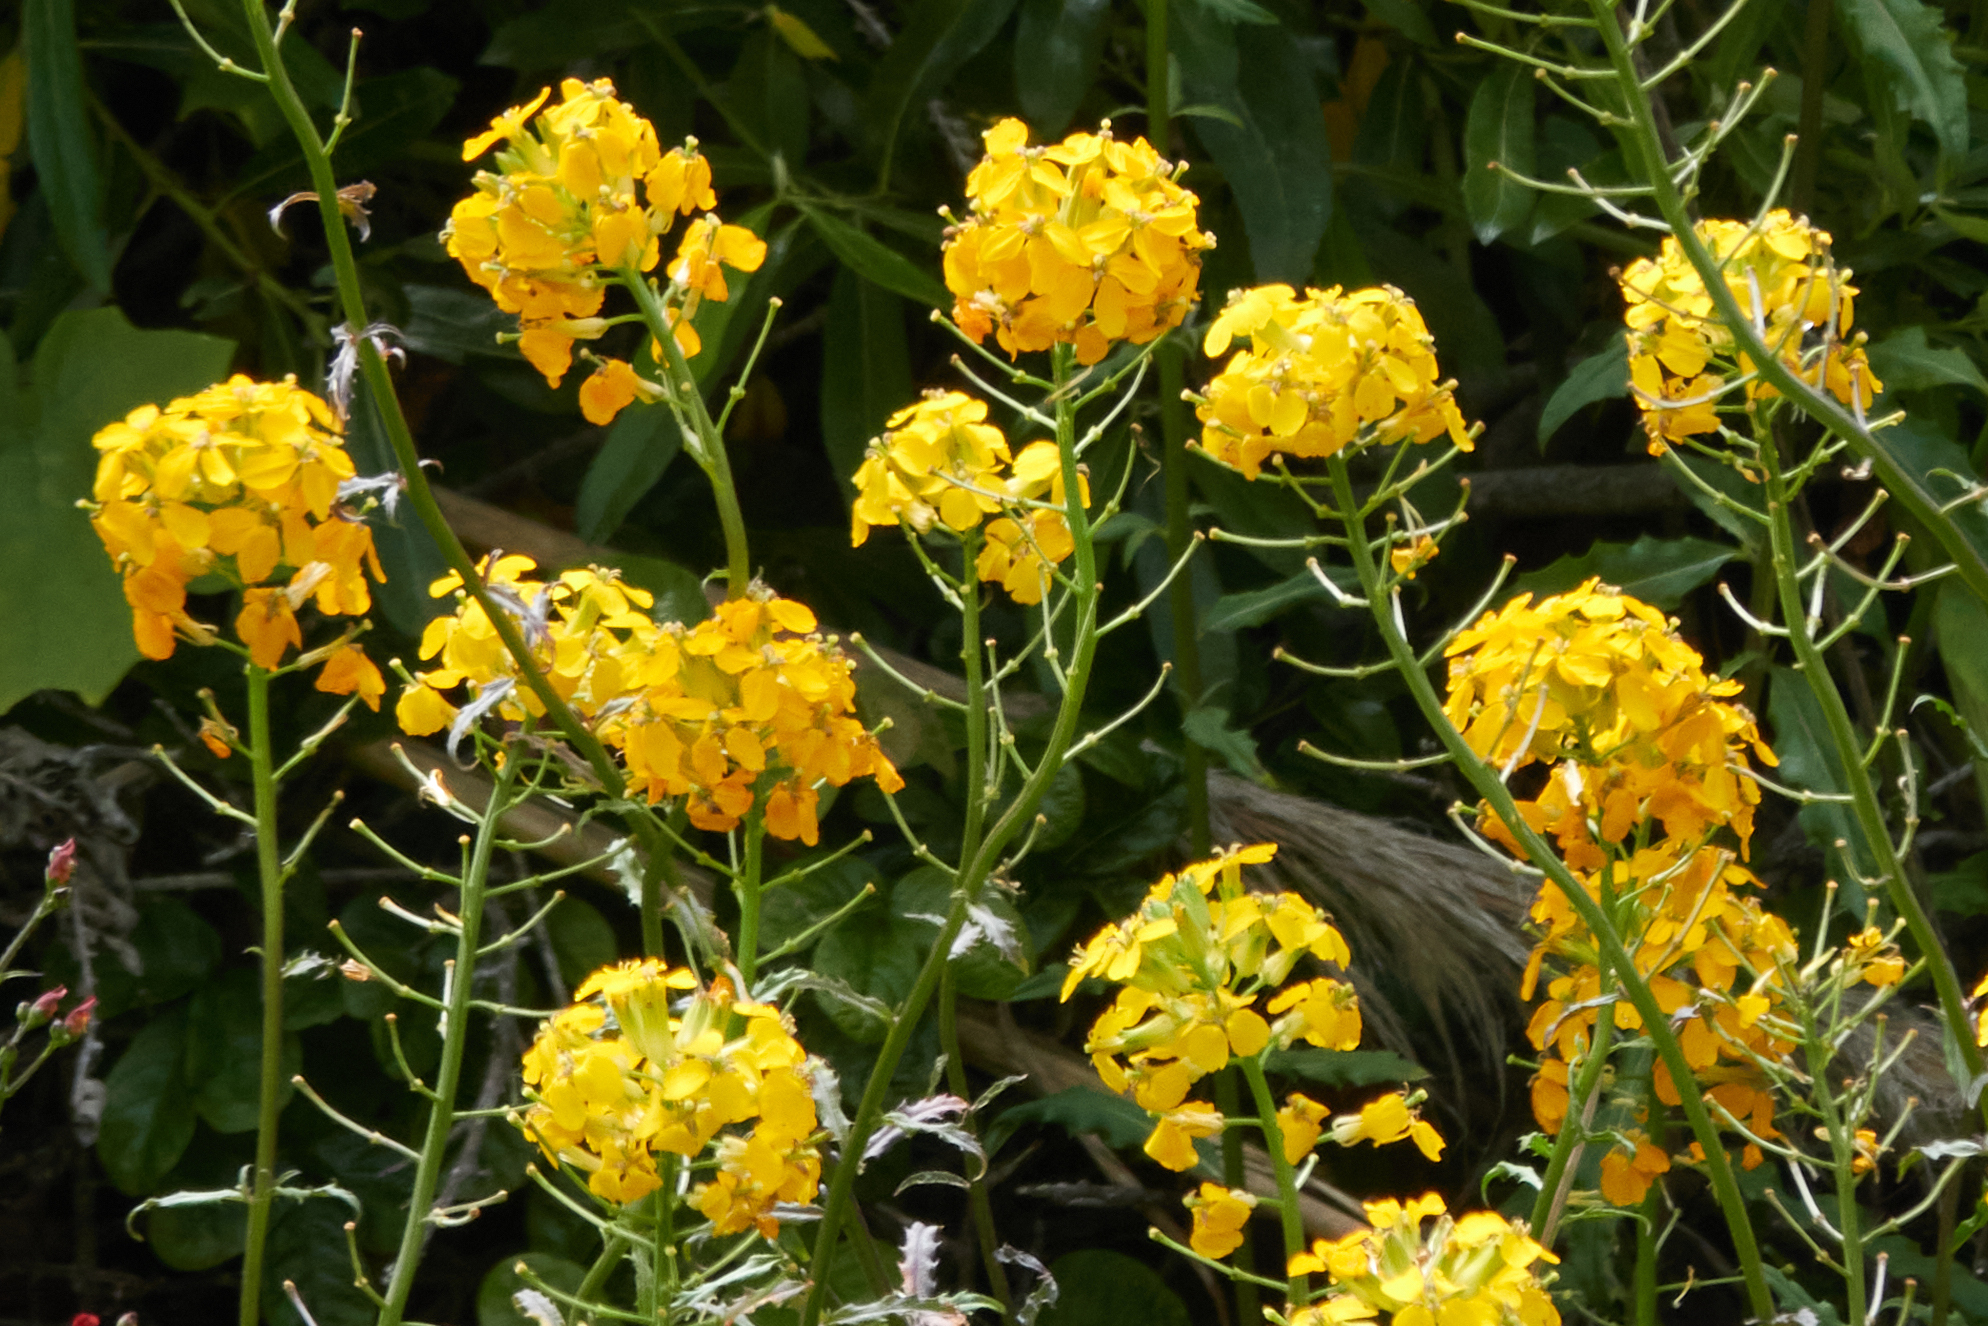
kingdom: Plantae
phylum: Tracheophyta
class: Magnoliopsida
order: Brassicales
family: Brassicaceae
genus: Erysimum
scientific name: Erysimum capitatum
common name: Western wallflower
